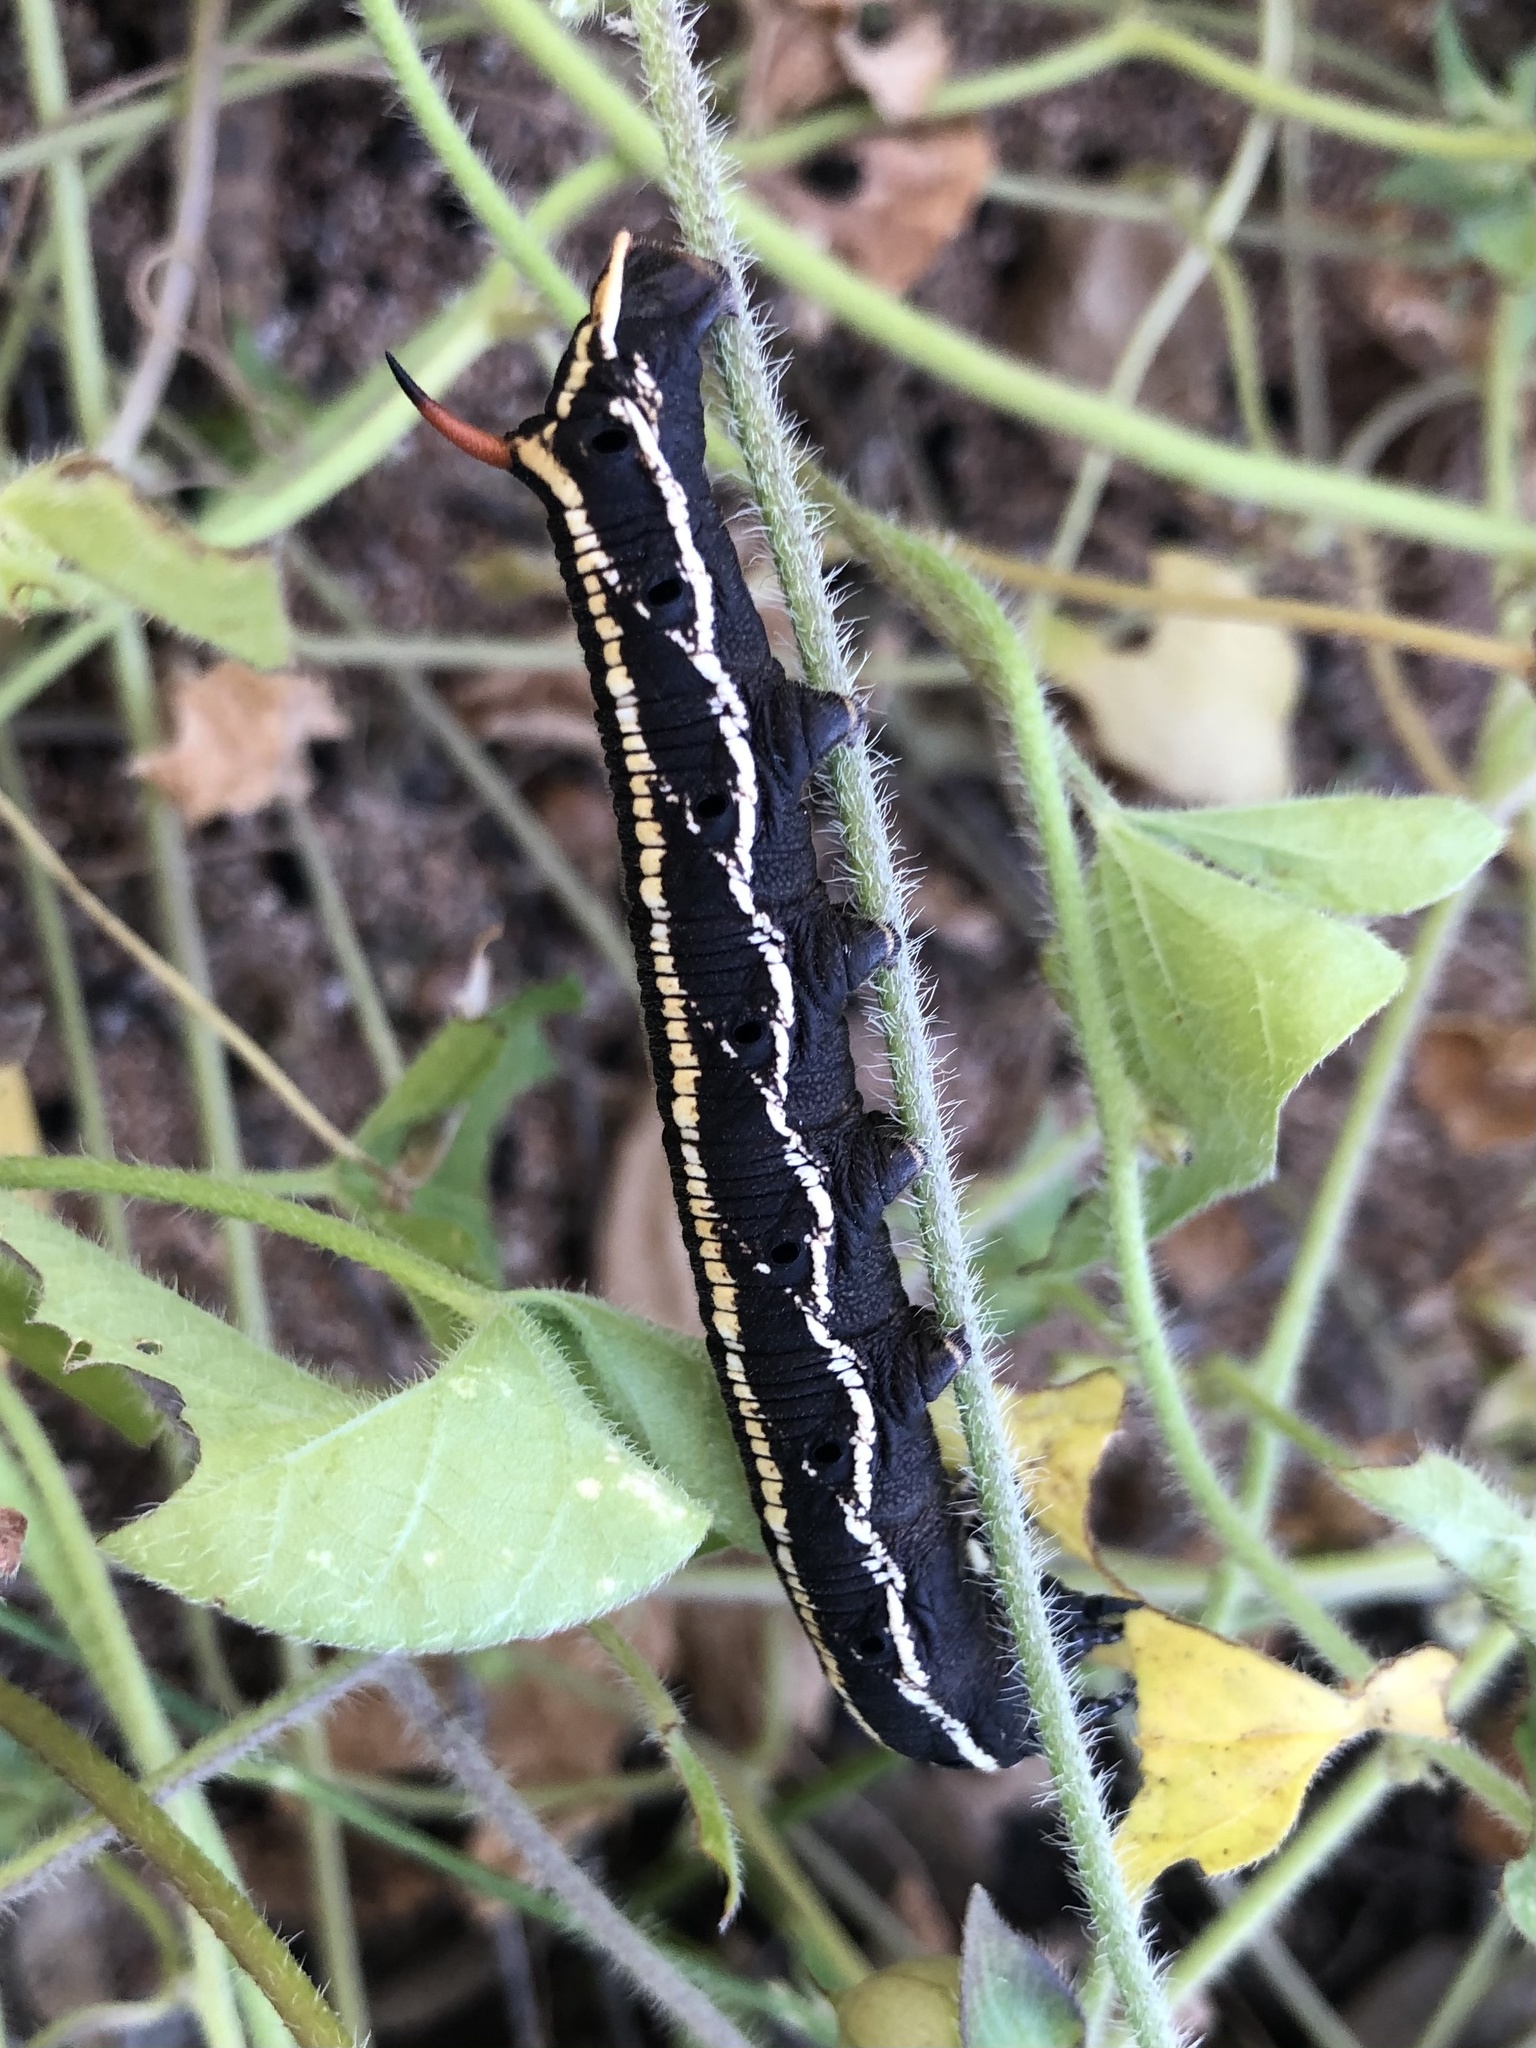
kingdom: Animalia
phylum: Arthropoda
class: Insecta
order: Lepidoptera
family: Sphingidae
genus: Agrius
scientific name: Agrius convolvuli
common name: Convolvulus hawkmoth
